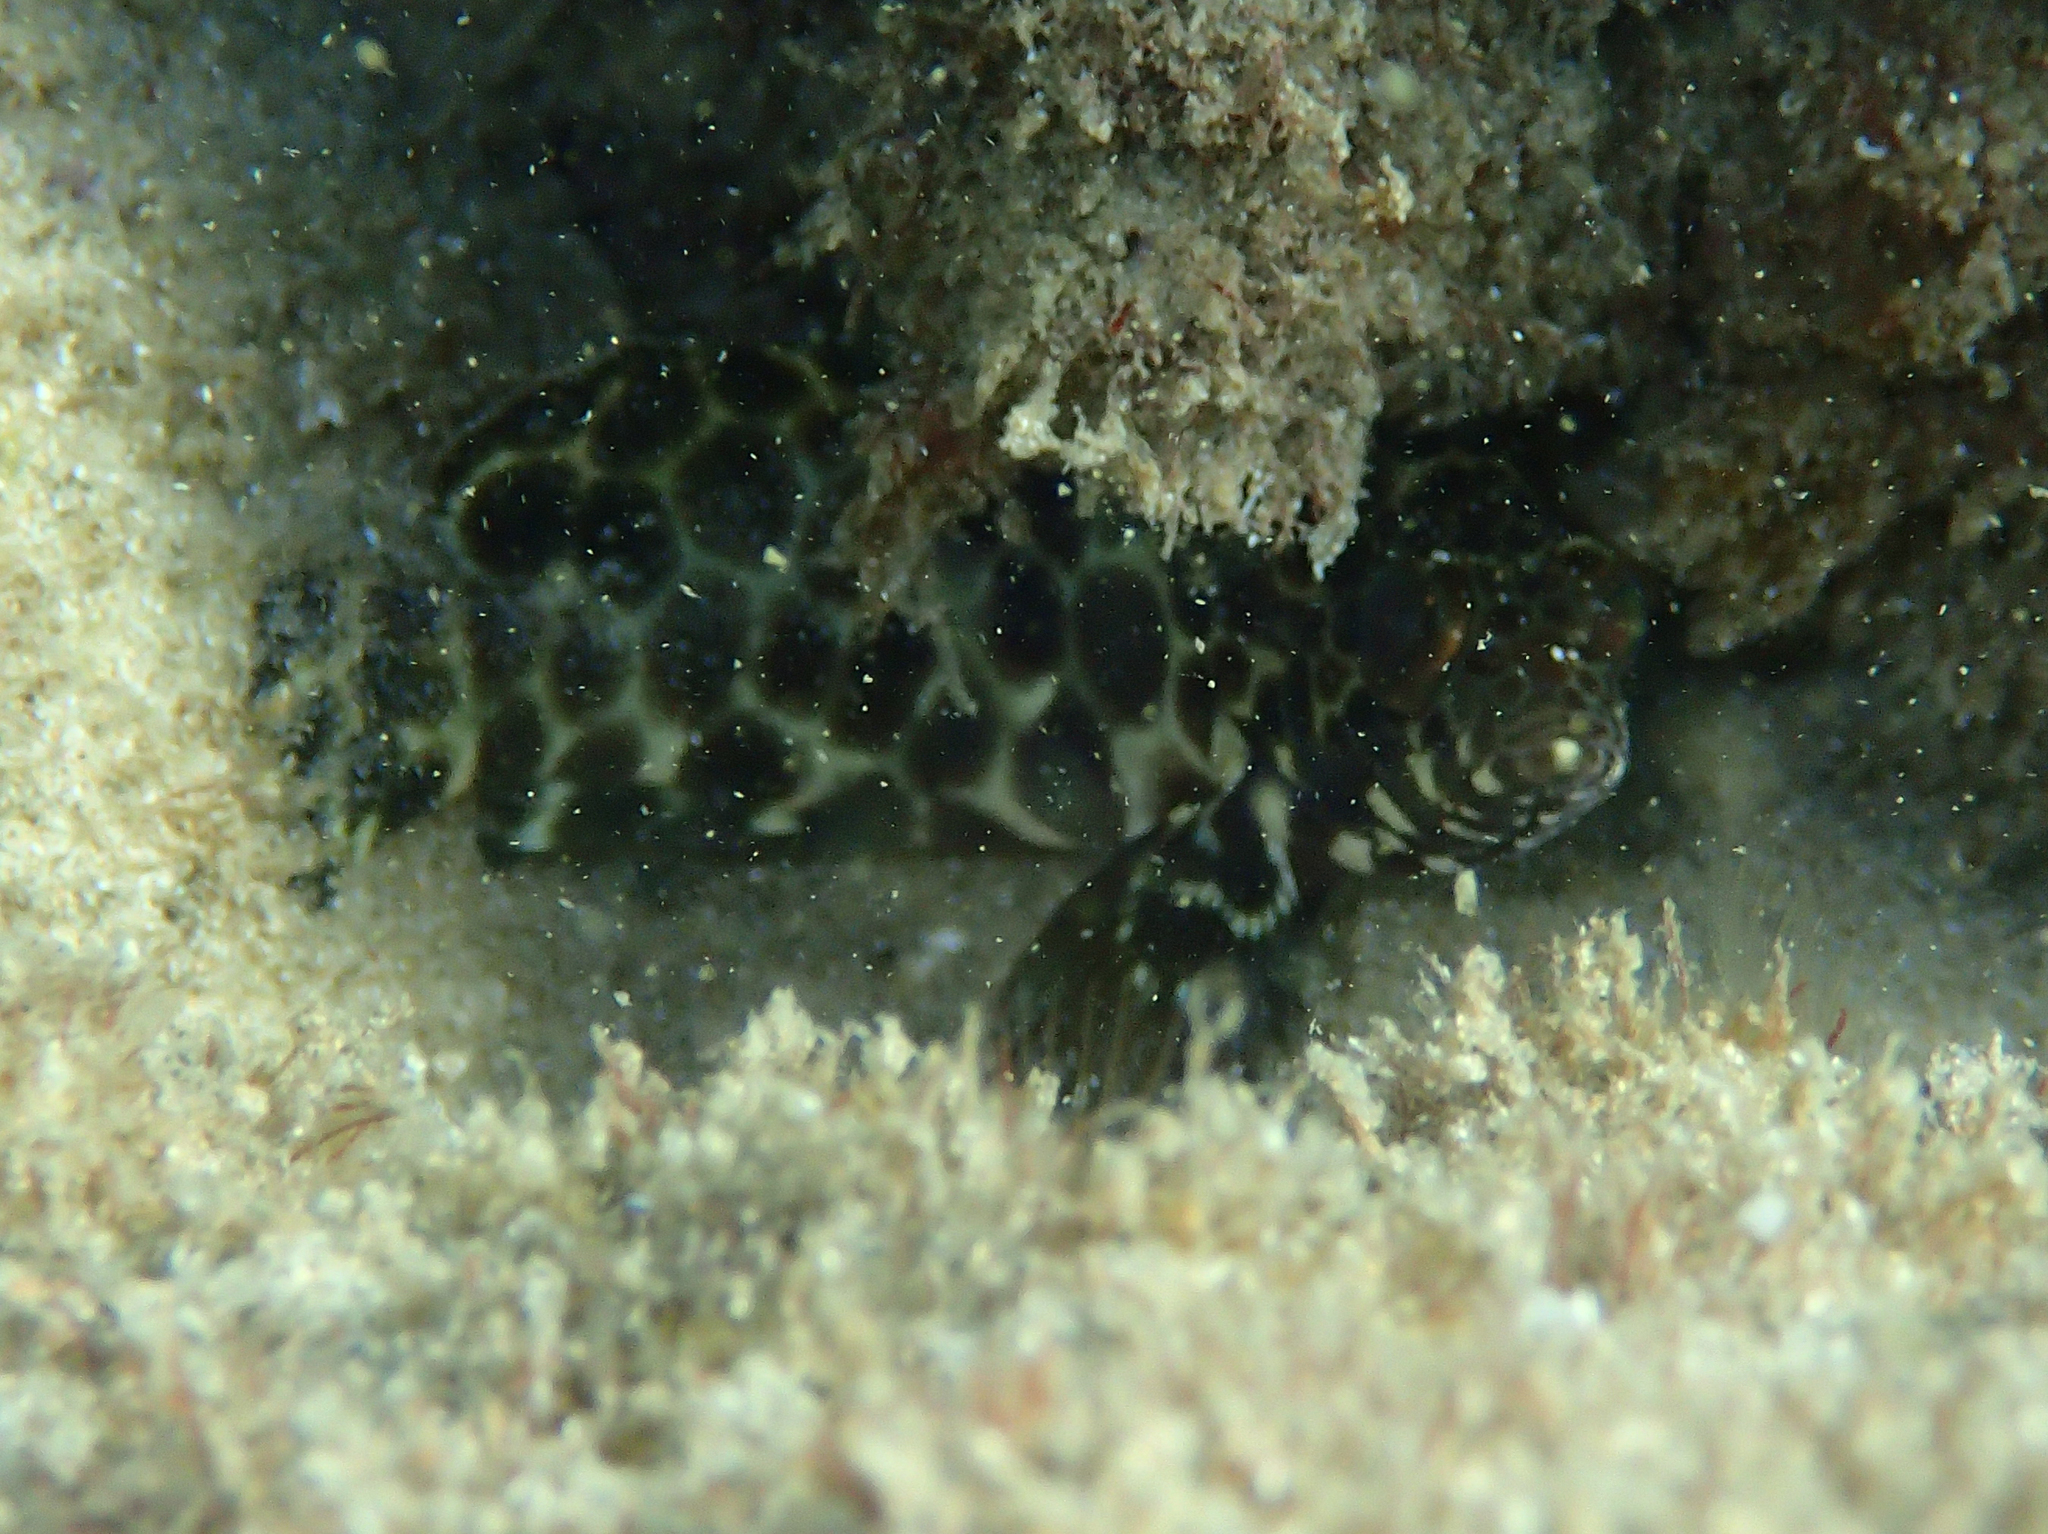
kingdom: Animalia
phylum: Chordata
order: Perciformes
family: Serranidae
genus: Epinephelus
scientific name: Epinephelus quoyanus
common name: Longfin grouper
